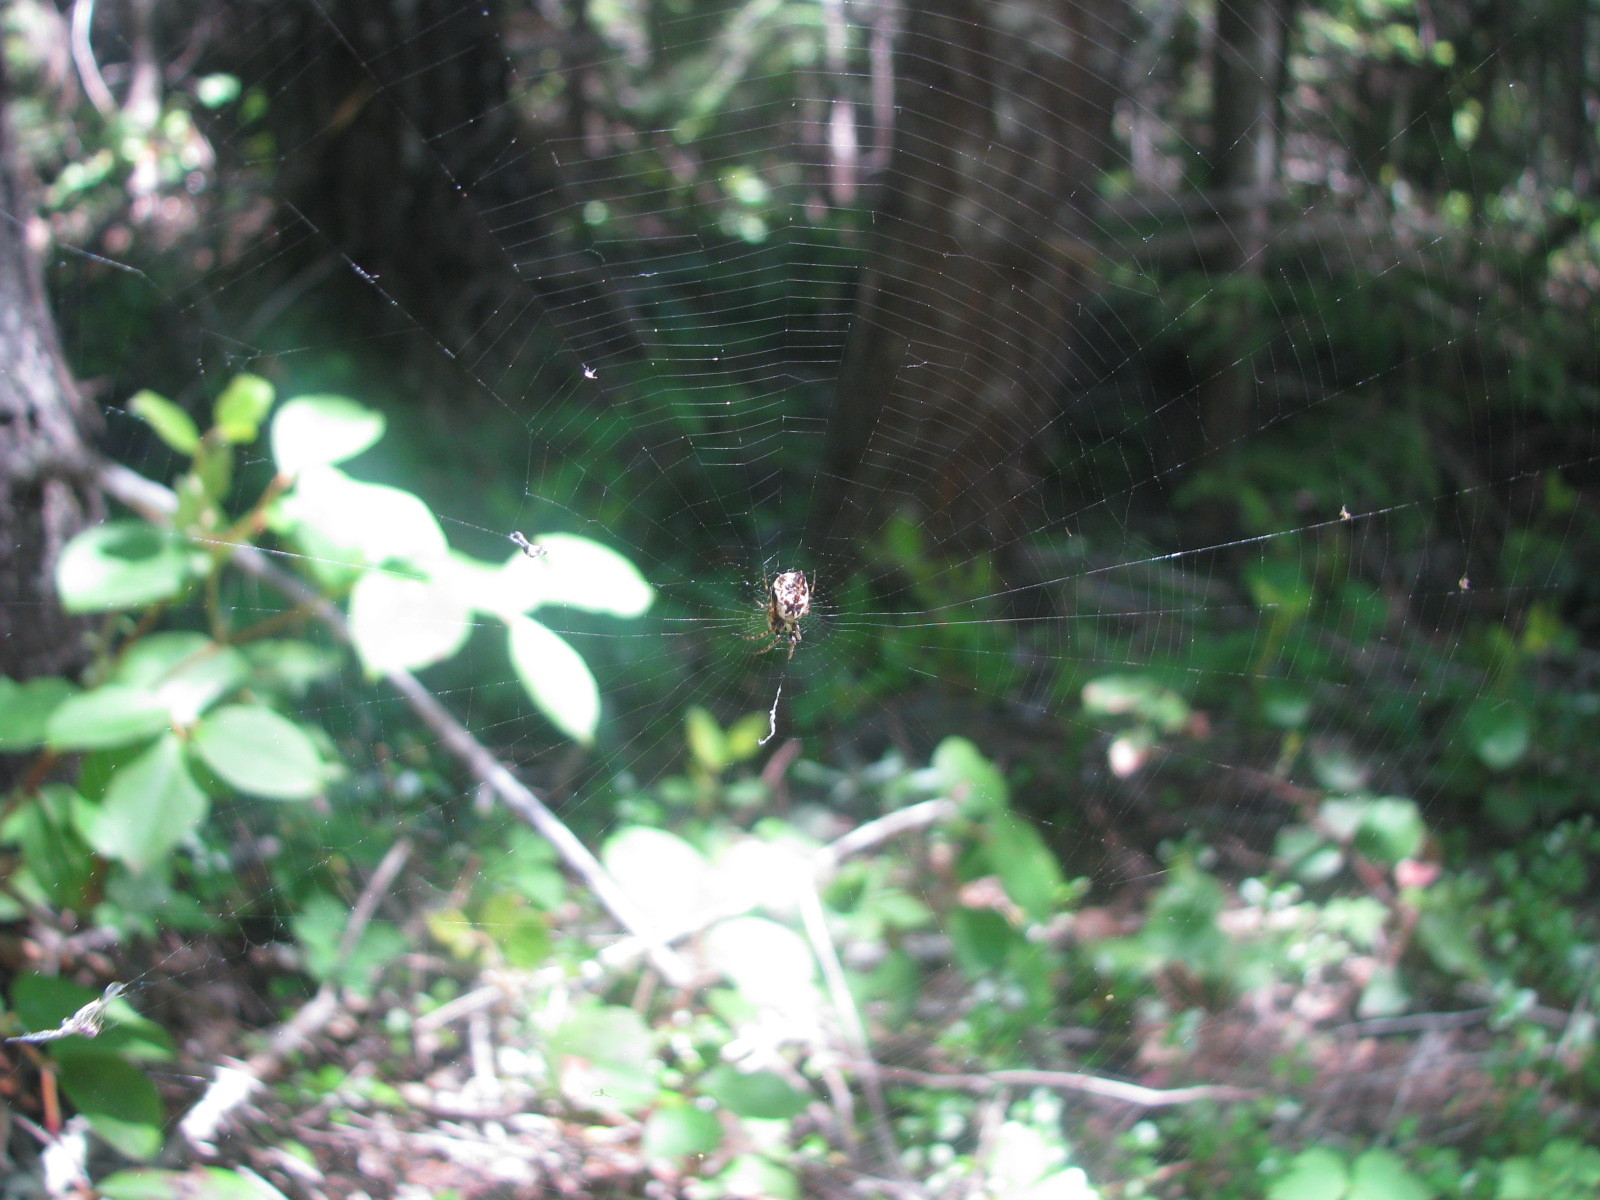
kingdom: Animalia
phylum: Arthropoda
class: Arachnida
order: Araneae
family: Araneidae
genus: Cyclosa
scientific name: Cyclosa conica
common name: Conical trashline orbweaver
